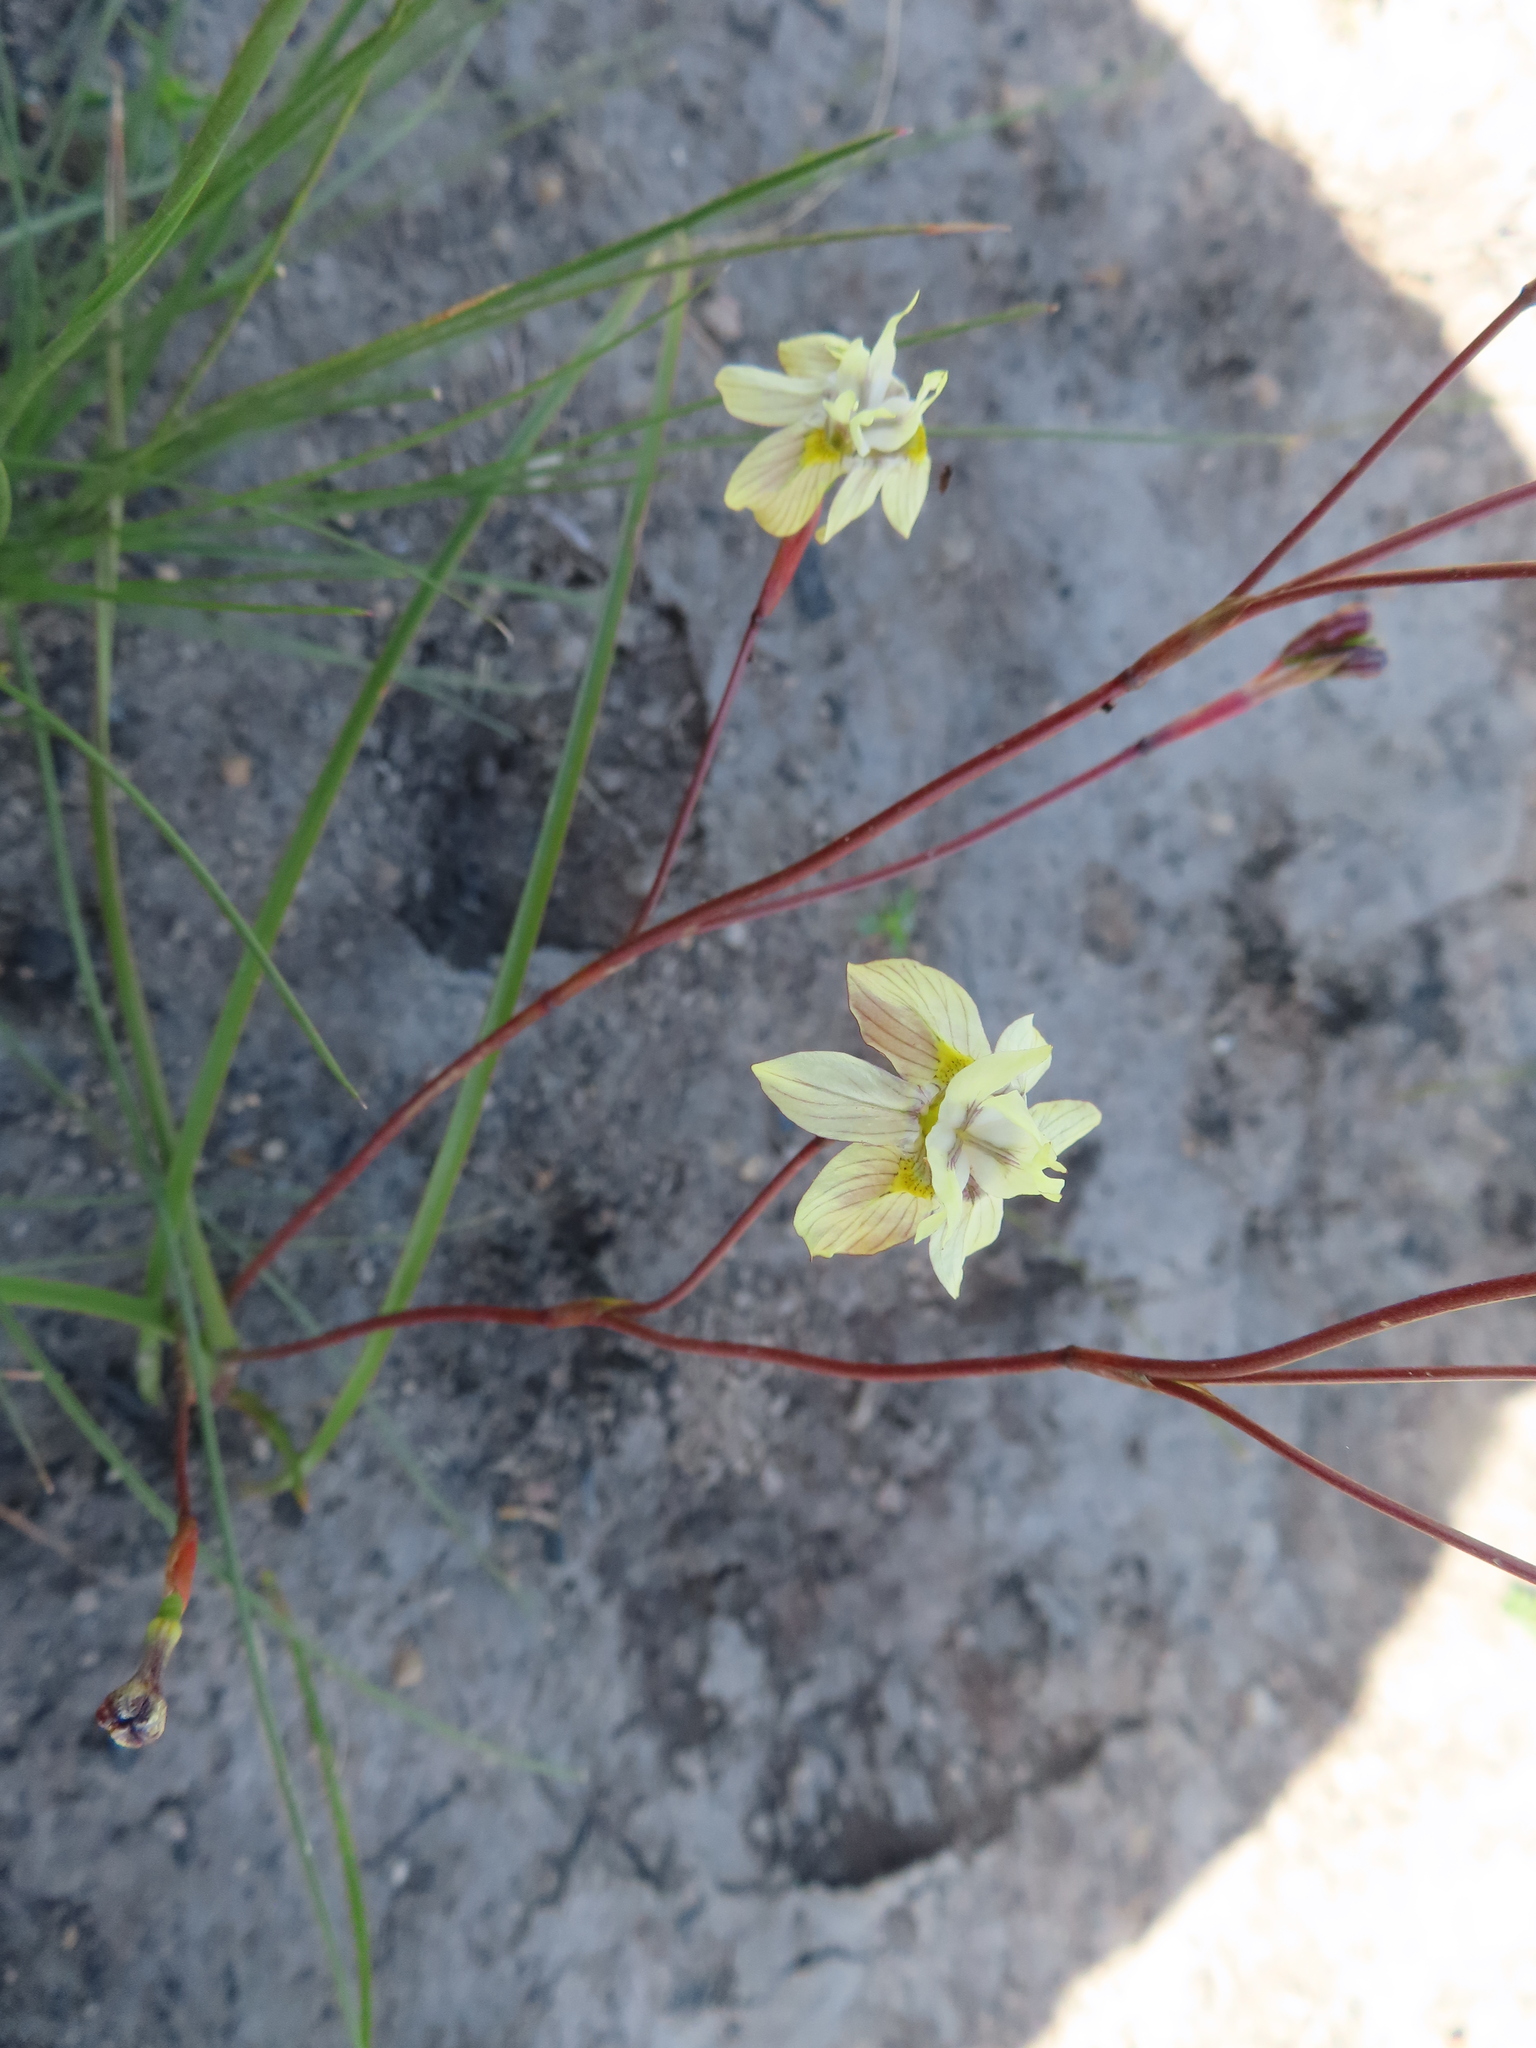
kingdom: Plantae
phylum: Tracheophyta
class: Liliopsida
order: Asparagales
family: Iridaceae
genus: Moraea
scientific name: Moraea gawleri
